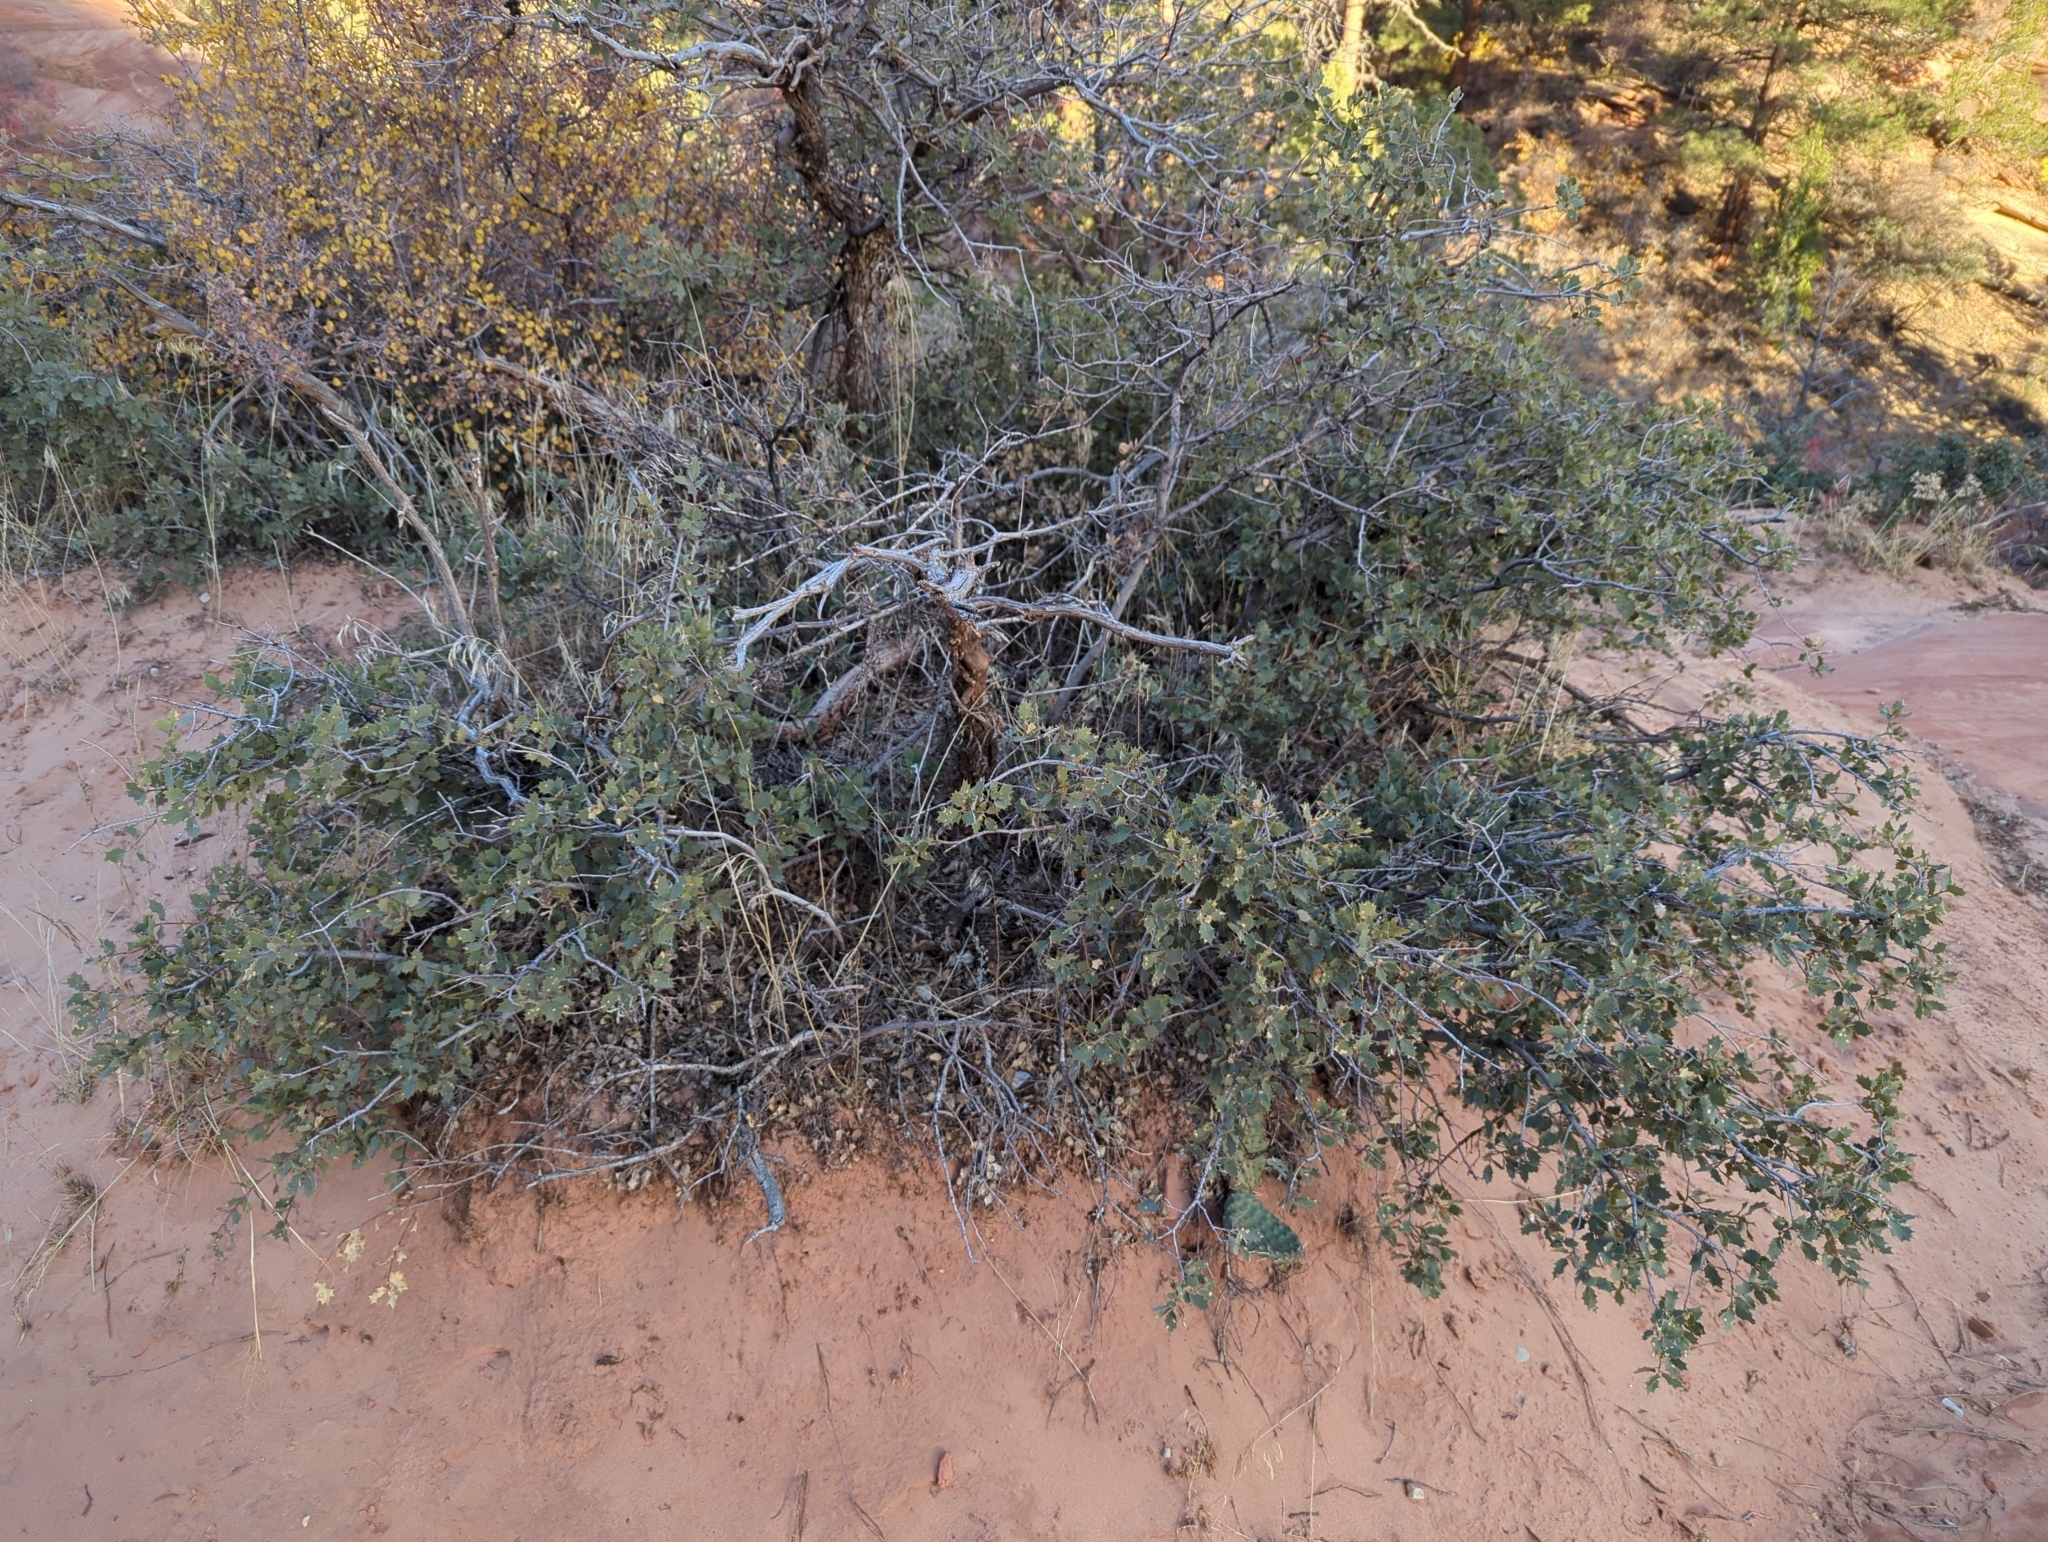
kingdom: Plantae
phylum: Tracheophyta
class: Magnoliopsida
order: Fagales
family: Fagaceae
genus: Quercus
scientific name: Quercus turbinella
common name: Sonoran scrub oak
